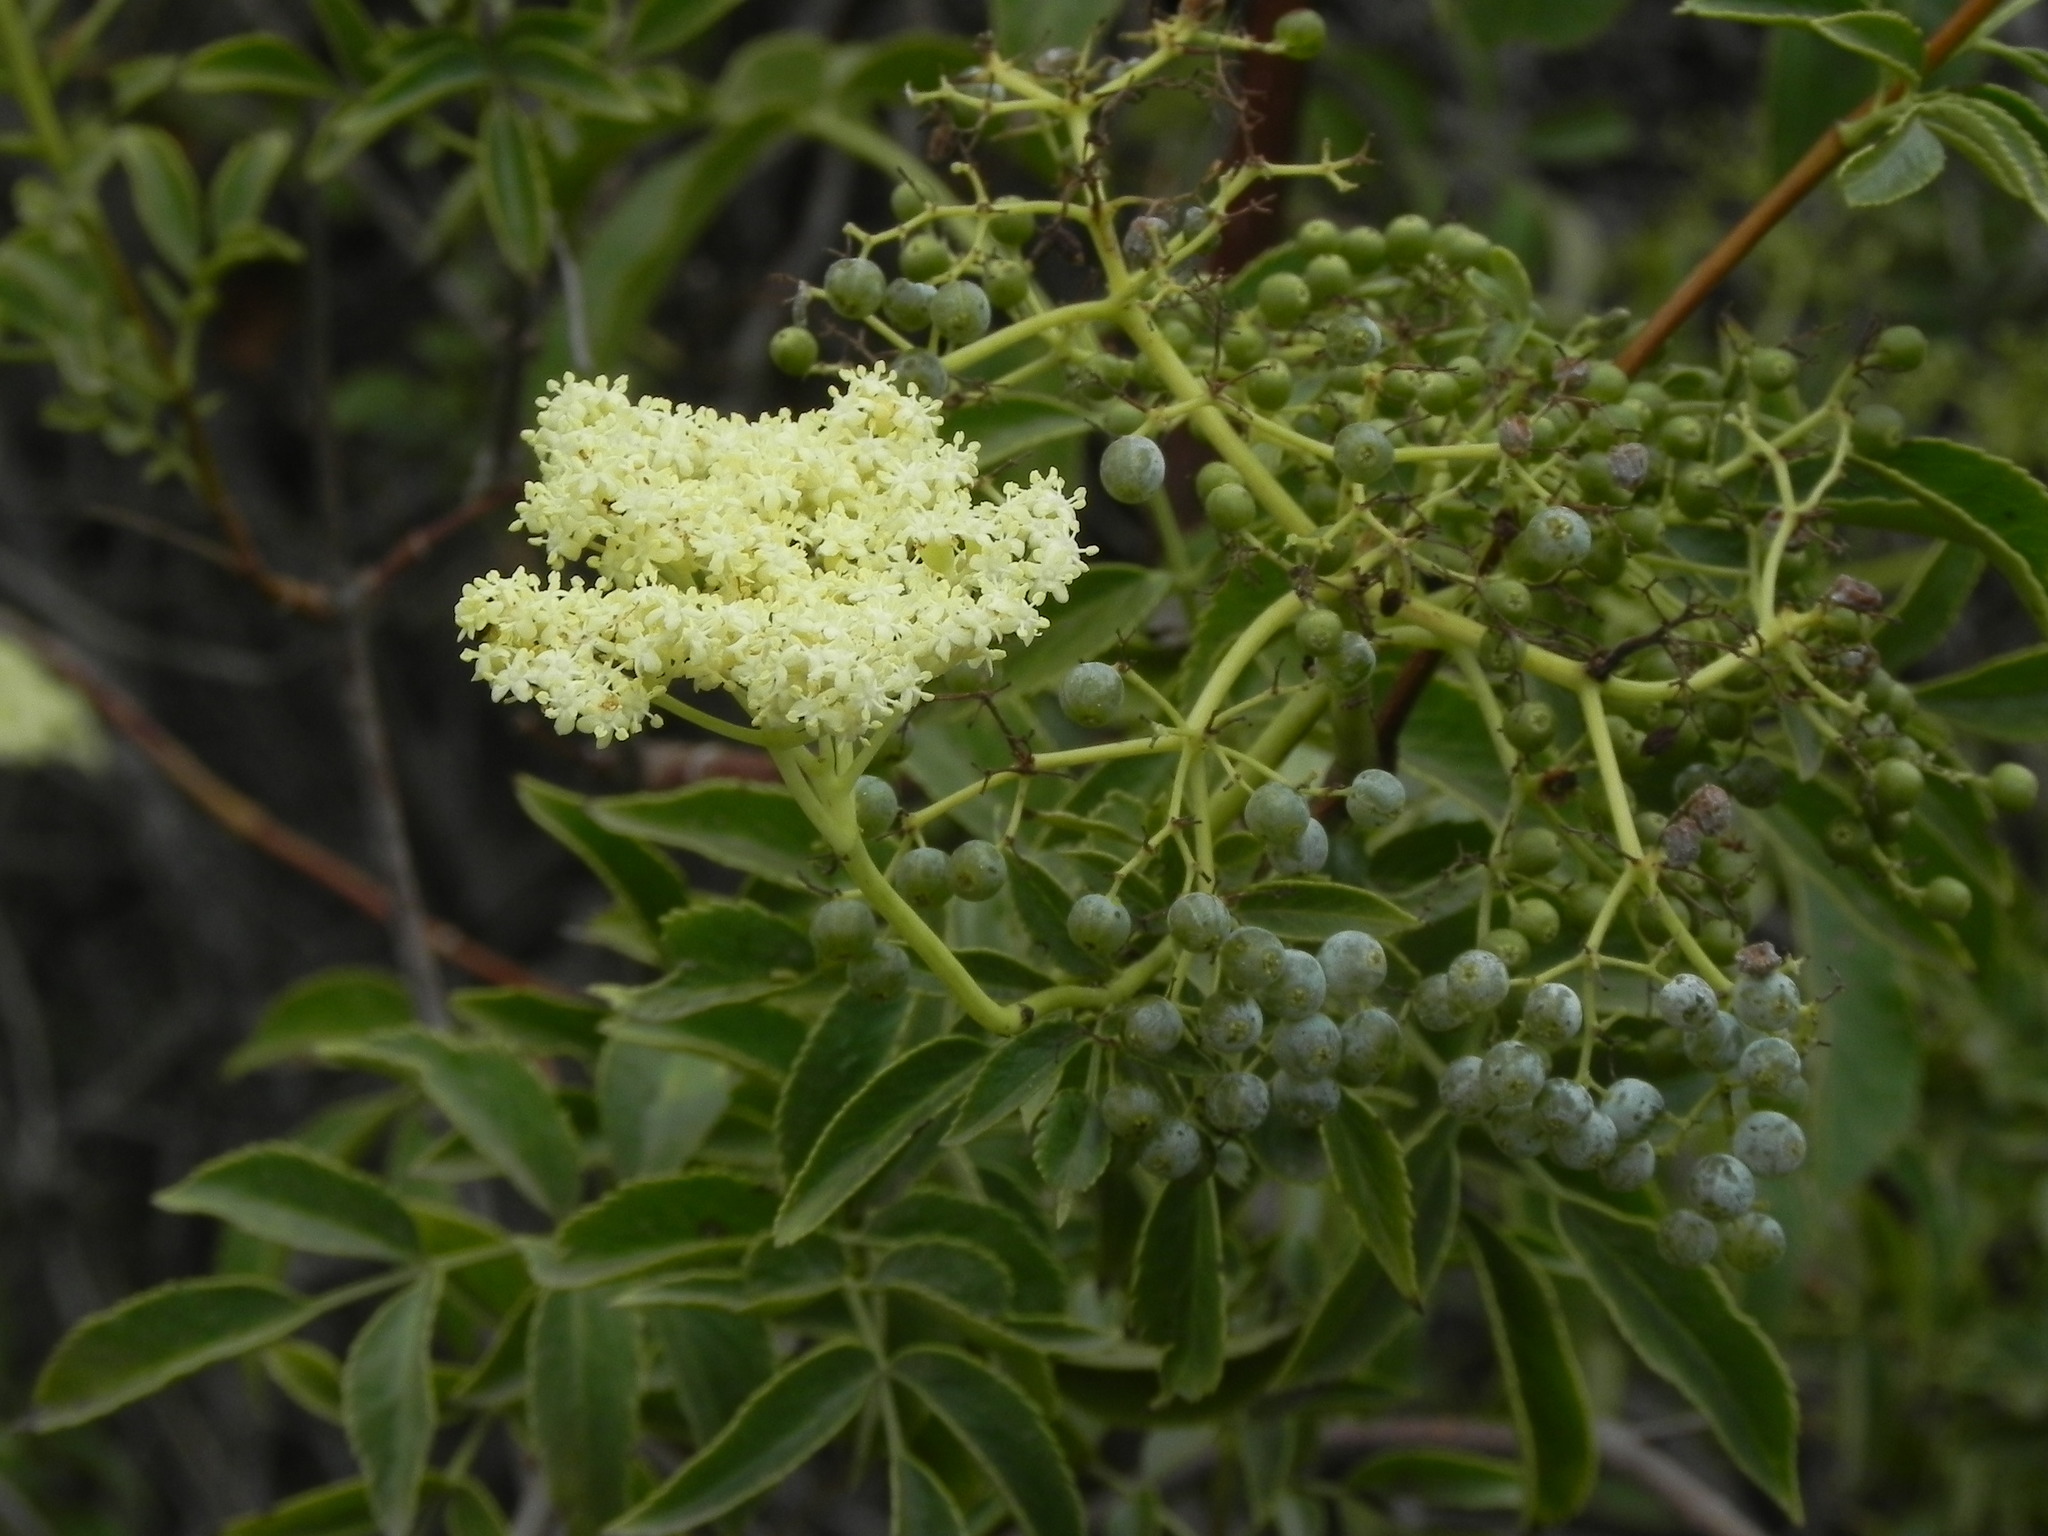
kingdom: Plantae
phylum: Tracheophyta
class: Magnoliopsida
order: Dipsacales
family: Viburnaceae
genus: Sambucus
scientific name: Sambucus cerulea
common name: Blue elder
